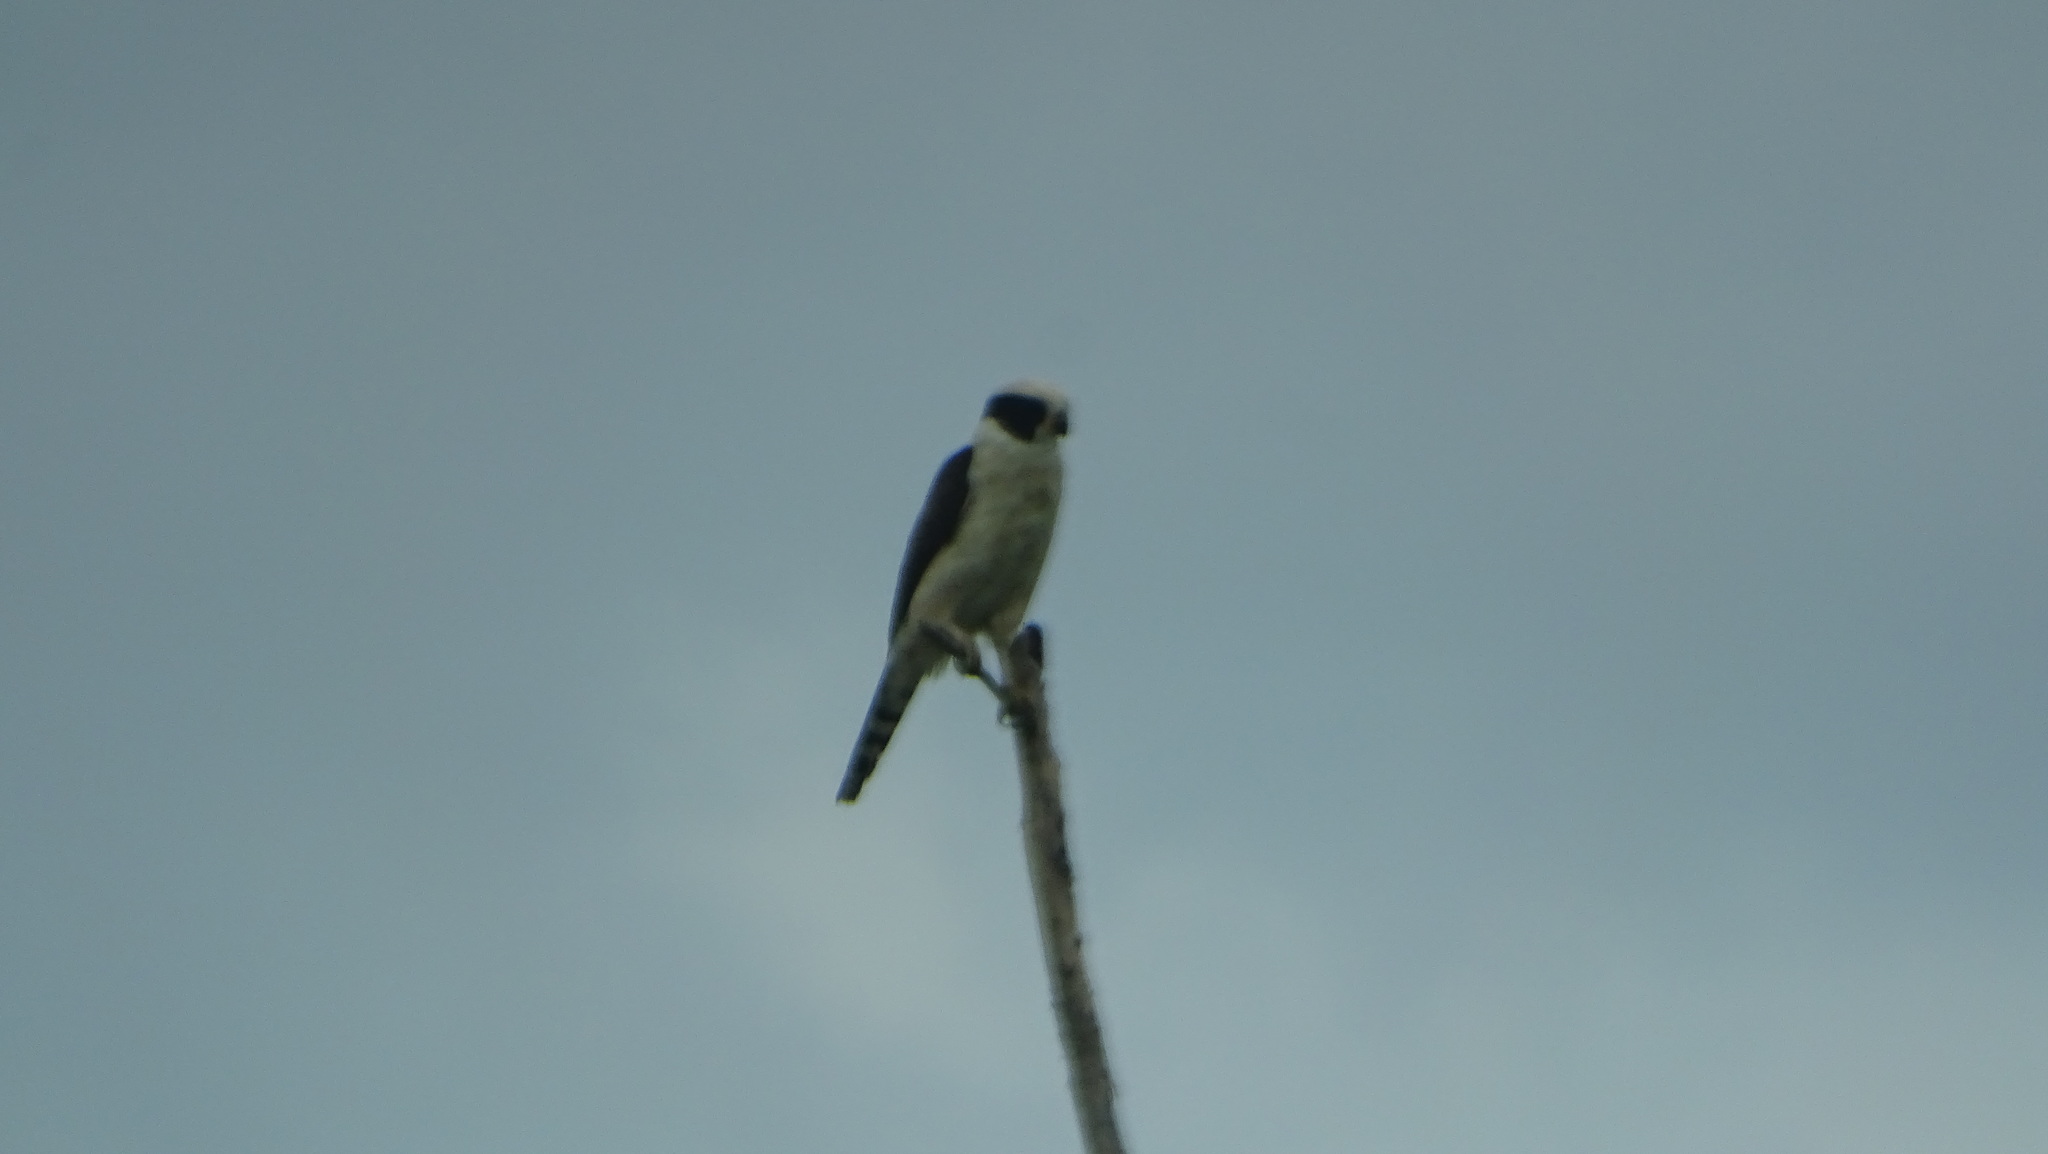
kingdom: Animalia
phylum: Chordata
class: Aves
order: Falconiformes
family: Falconidae
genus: Herpetotheres
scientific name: Herpetotheres cachinnans
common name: Laughing falcon
